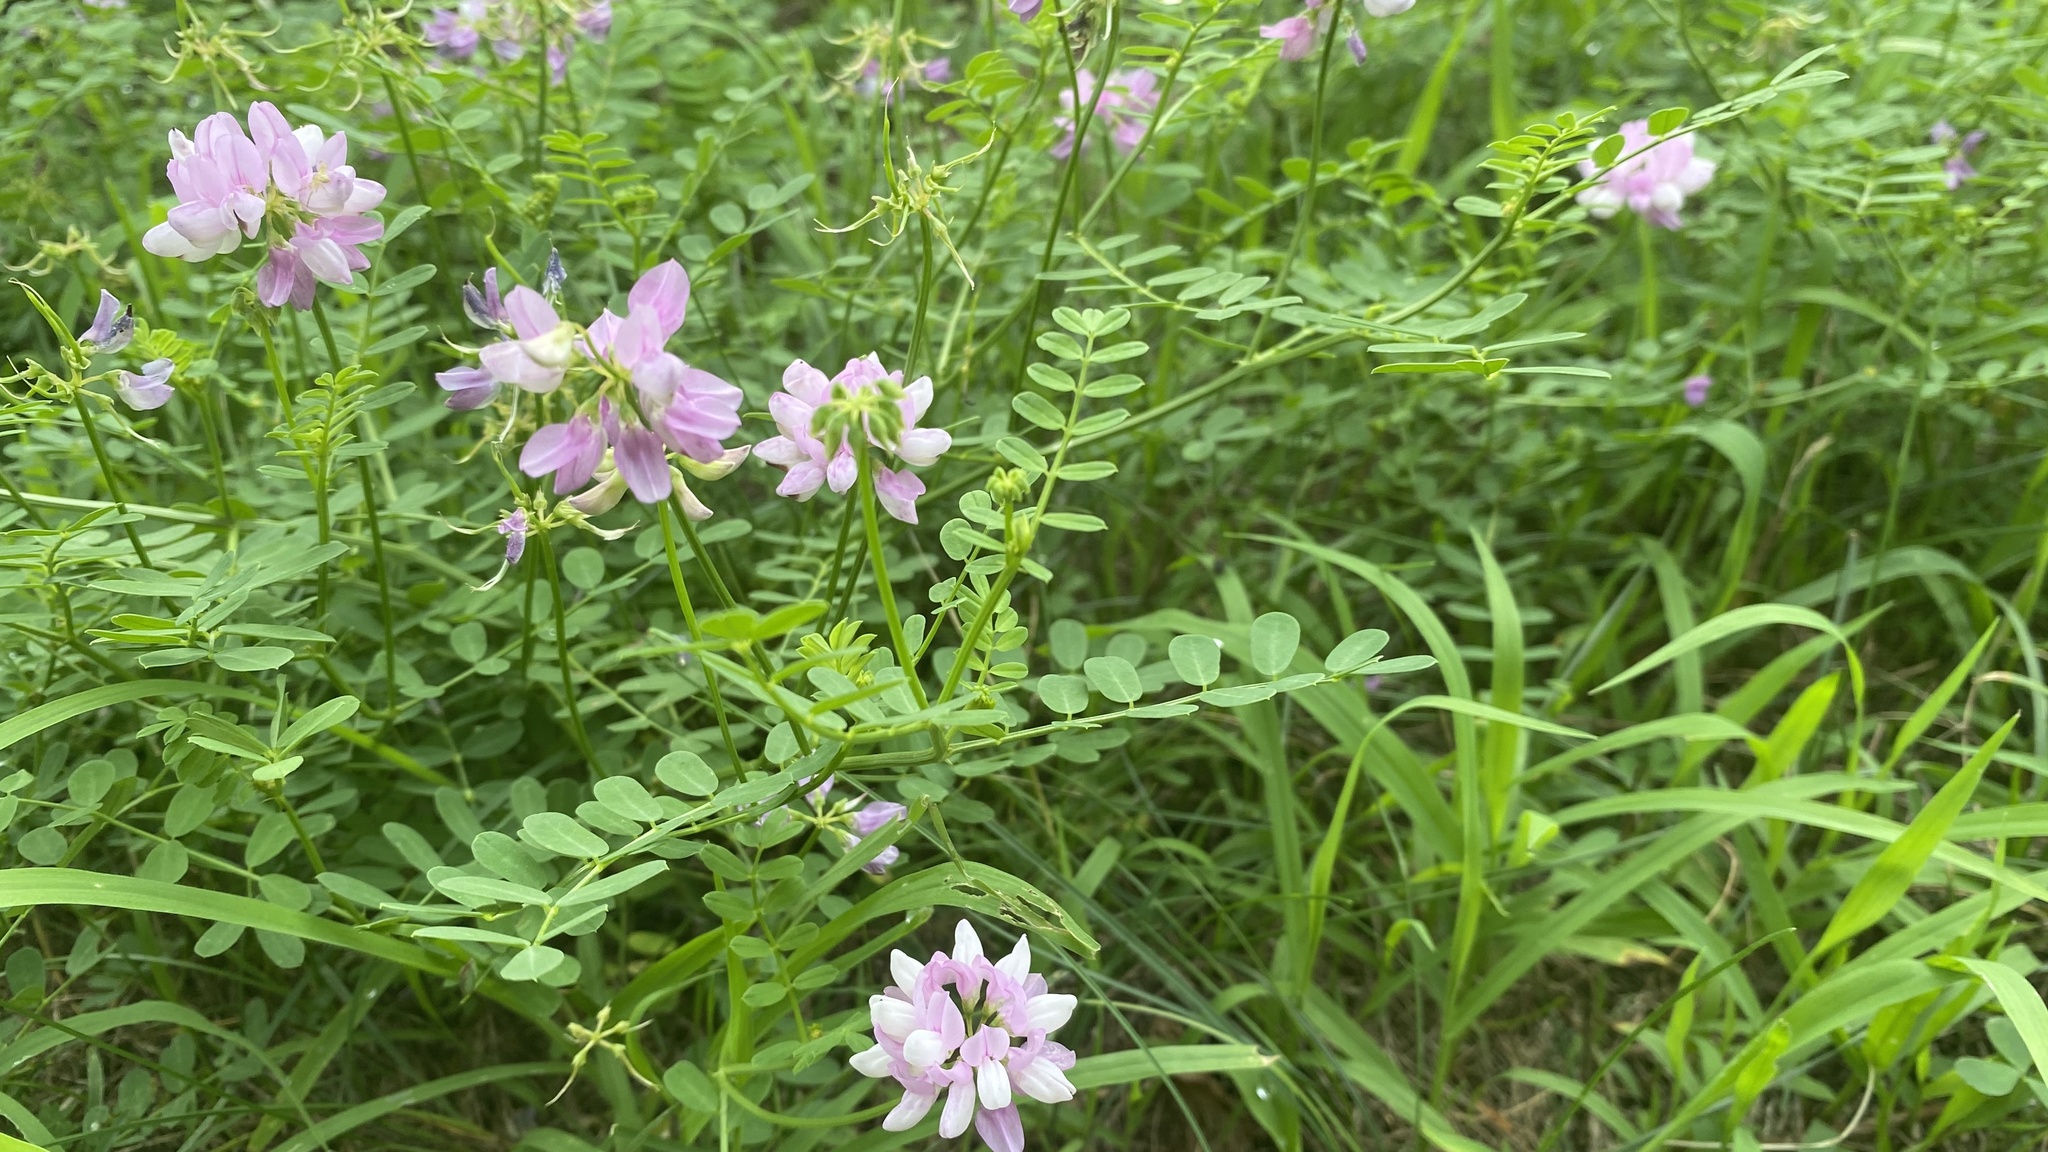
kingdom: Plantae
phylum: Tracheophyta
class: Magnoliopsida
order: Fabales
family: Fabaceae
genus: Coronilla
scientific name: Coronilla varia
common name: Crownvetch
